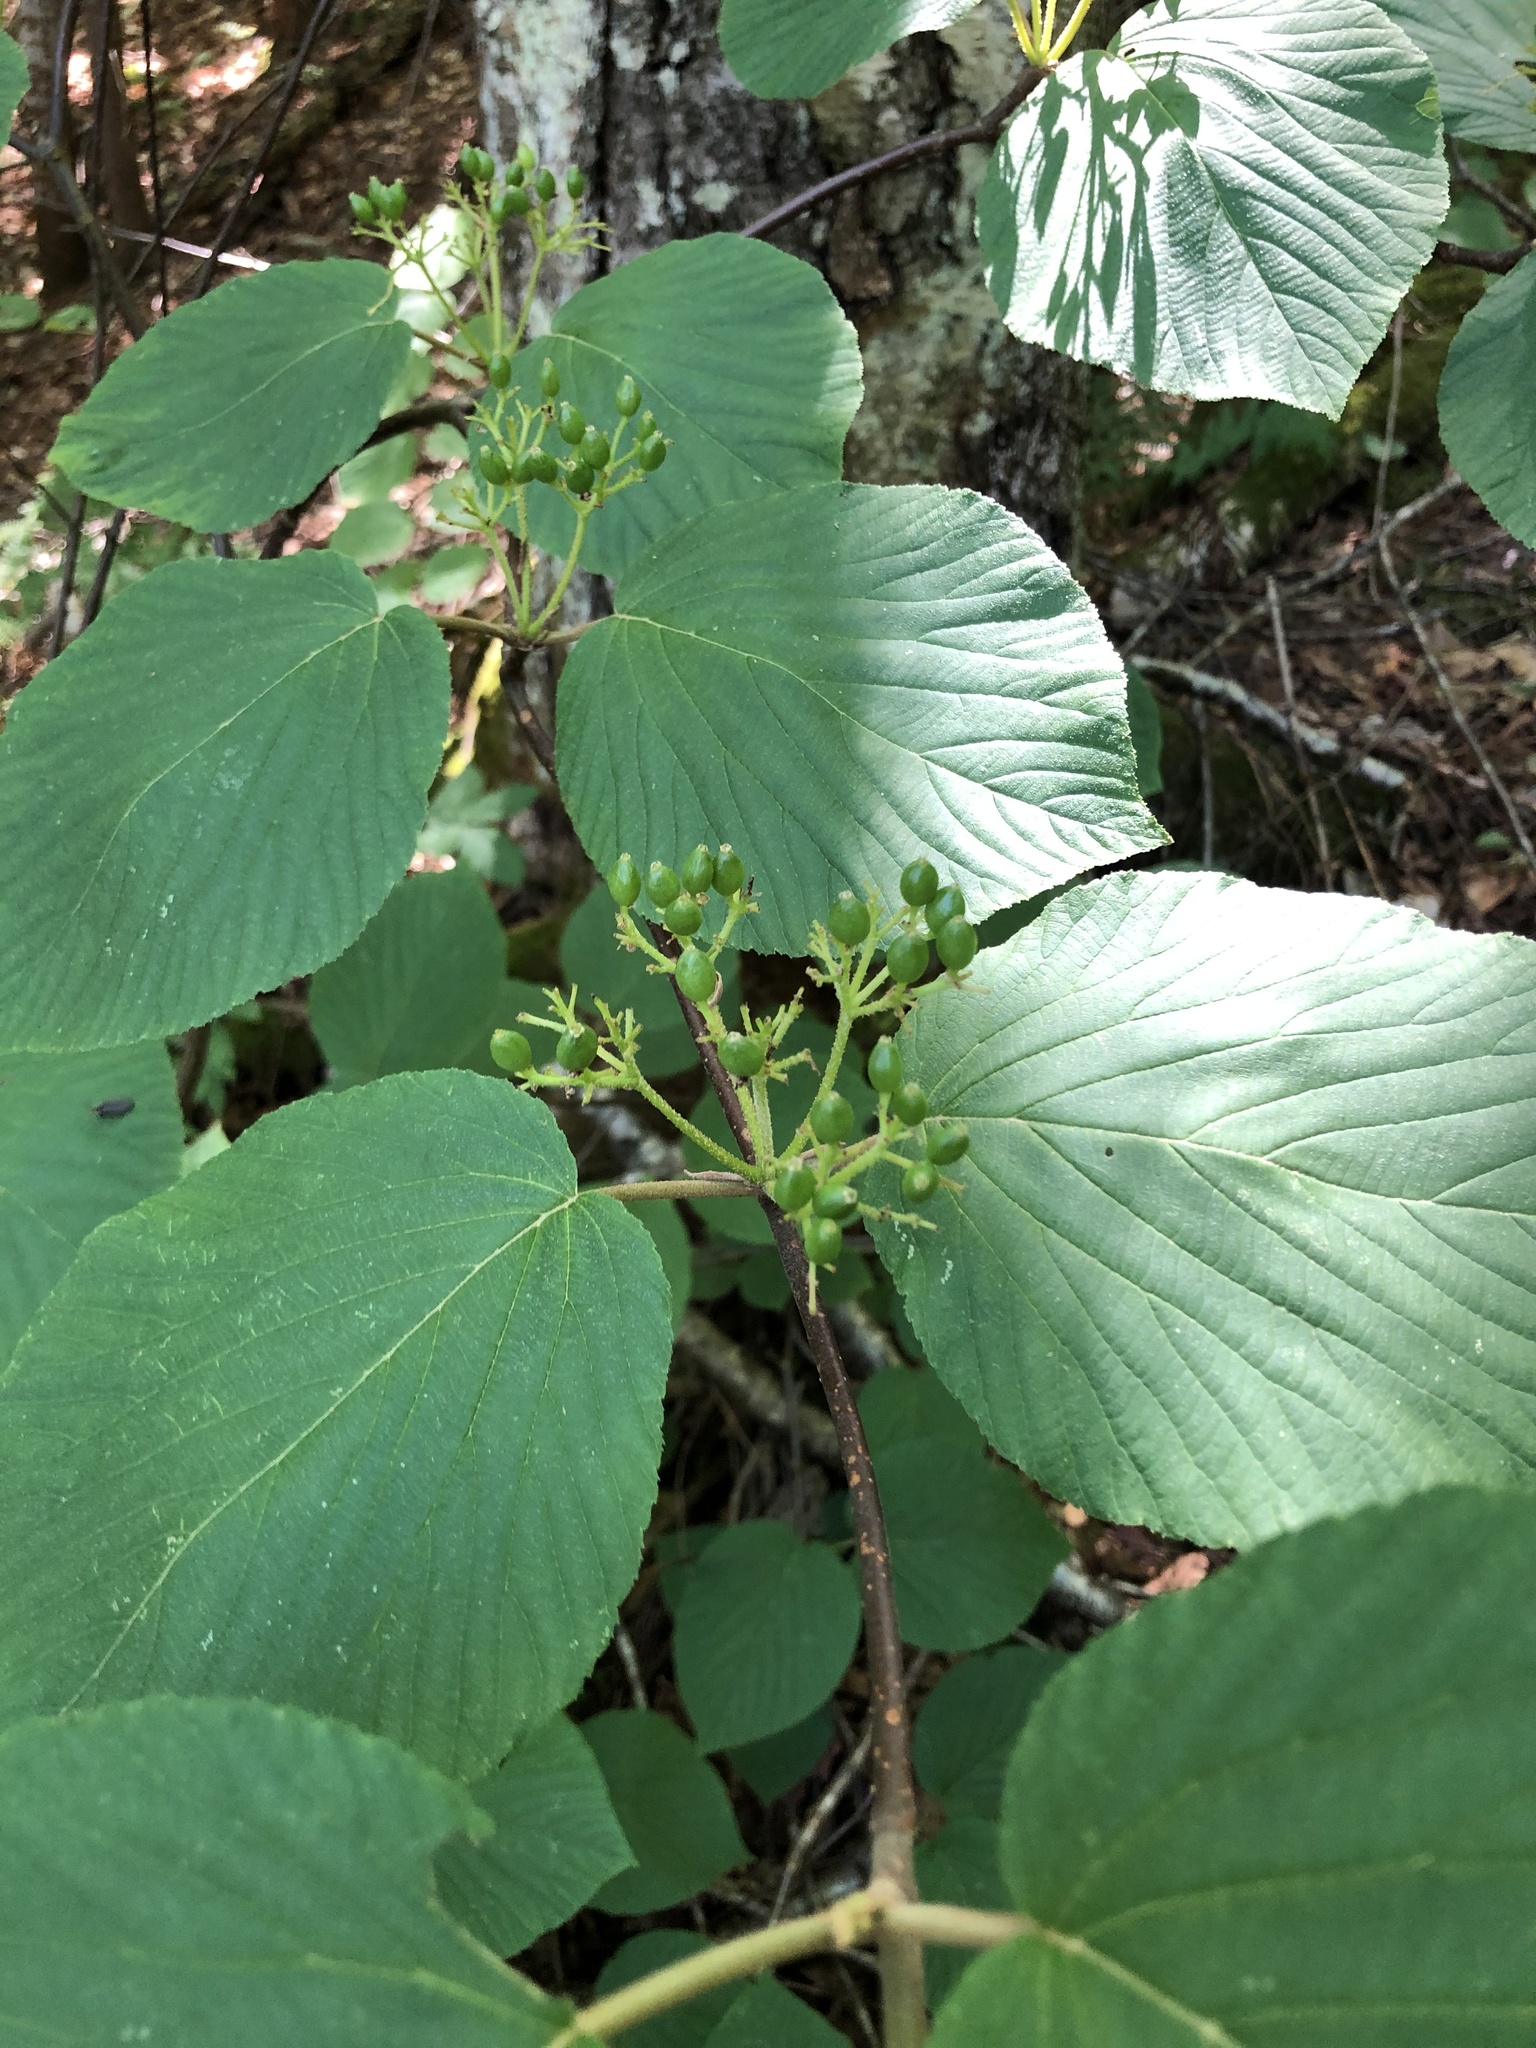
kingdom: Plantae
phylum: Tracheophyta
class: Magnoliopsida
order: Dipsacales
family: Viburnaceae
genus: Viburnum
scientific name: Viburnum lantanoides
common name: Hobblebush
